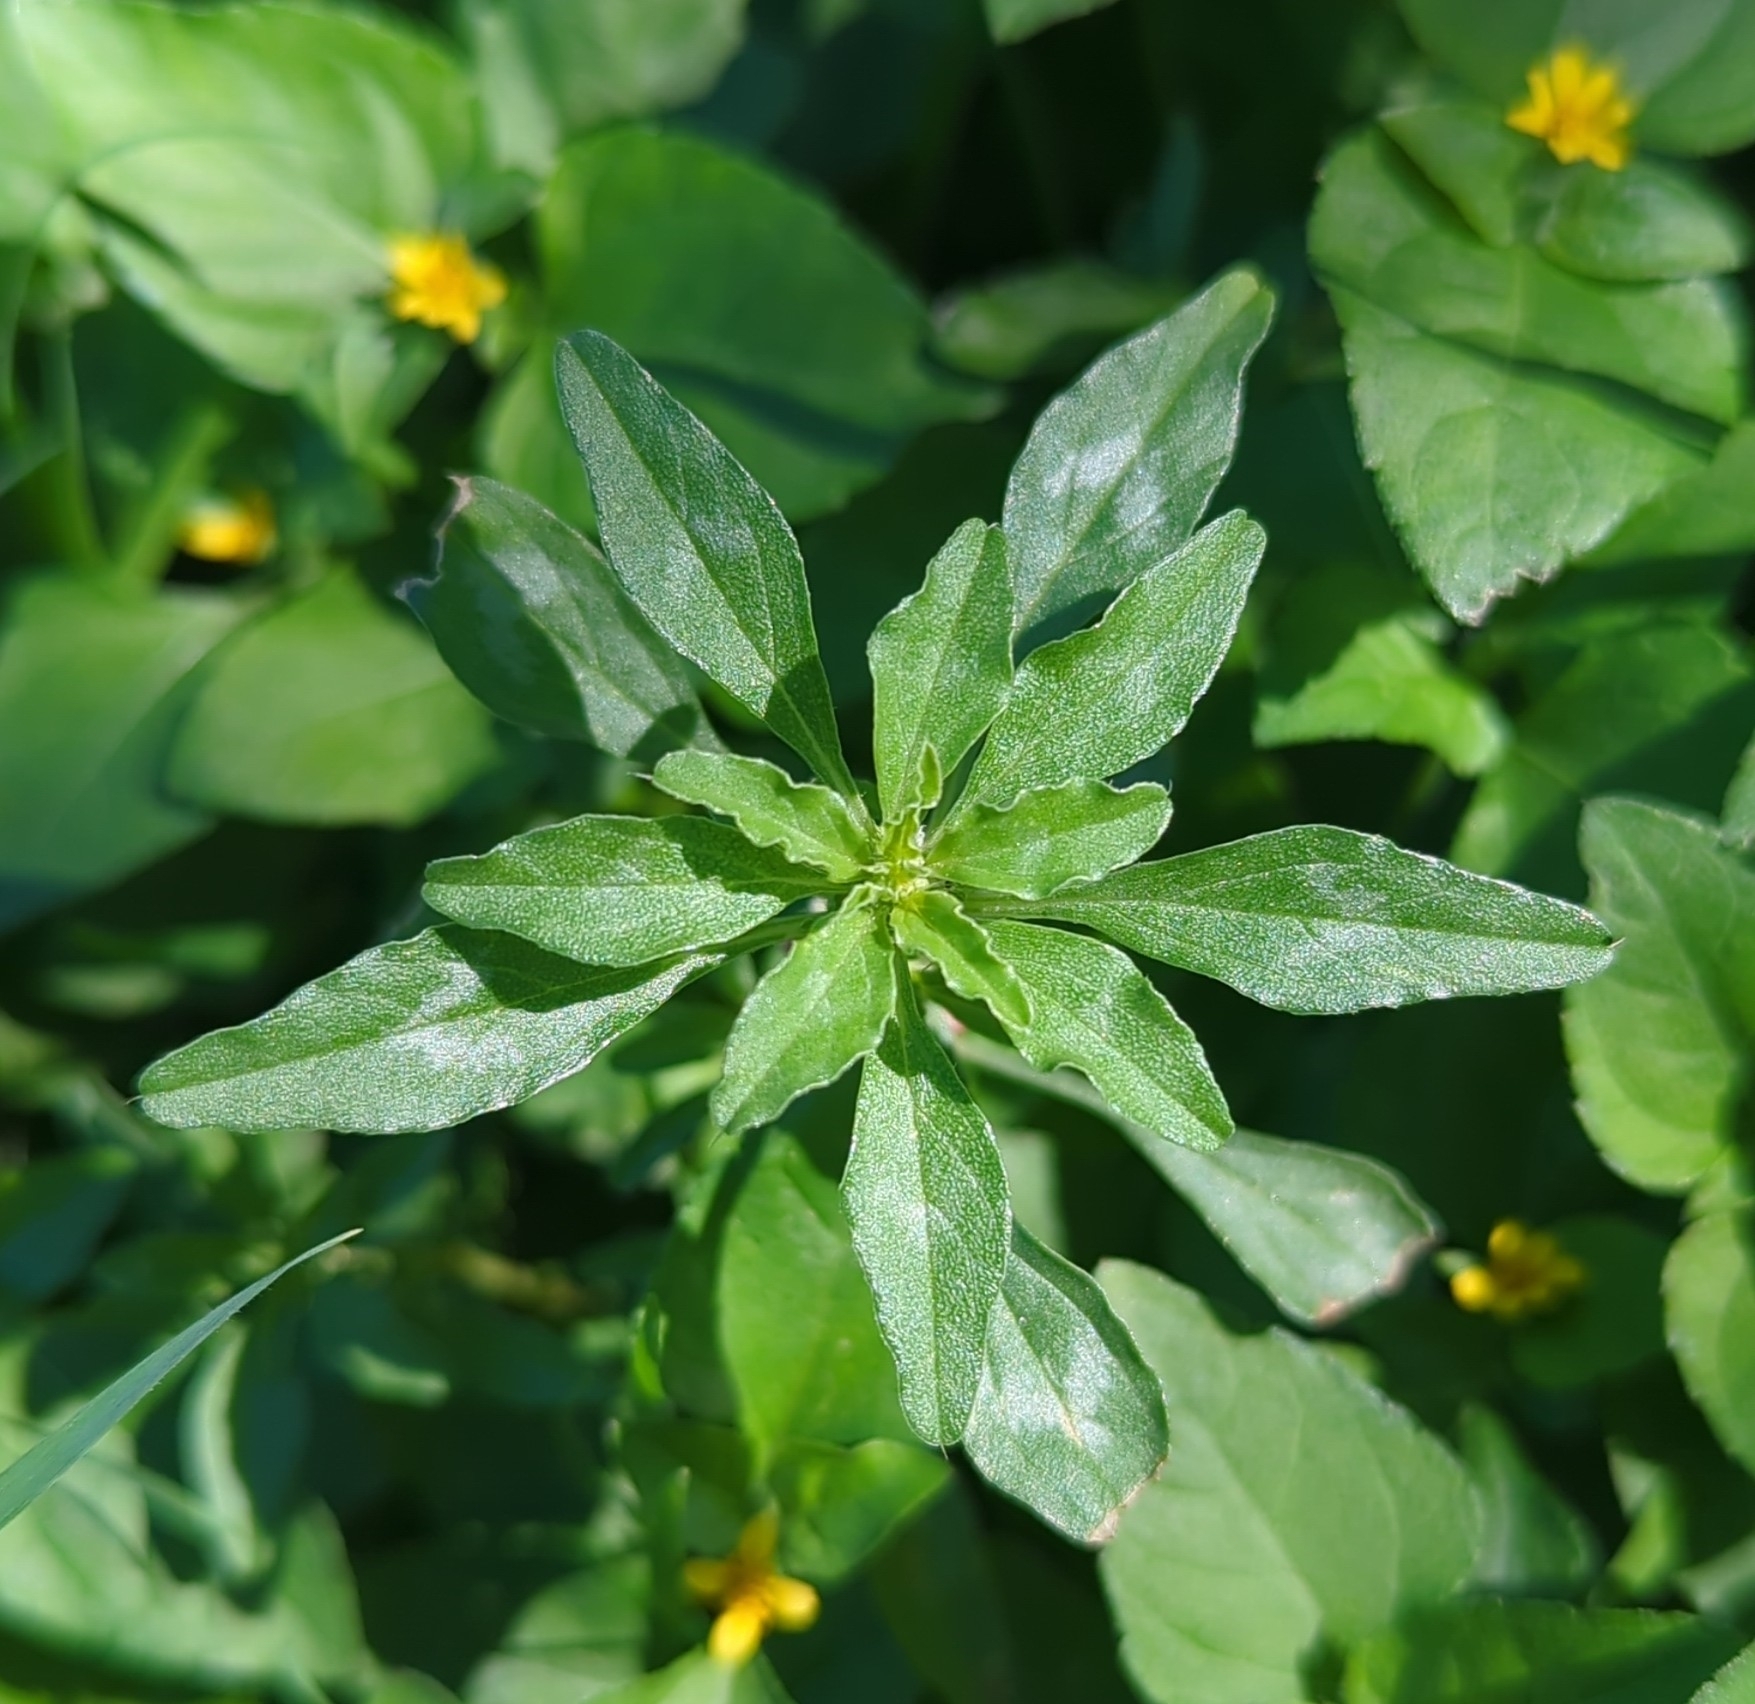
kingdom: Plantae
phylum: Tracheophyta
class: Magnoliopsida
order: Caryophyllales
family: Amaranthaceae
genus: Amaranthus
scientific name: Amaranthus polygonoides
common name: Tropical amaranth
